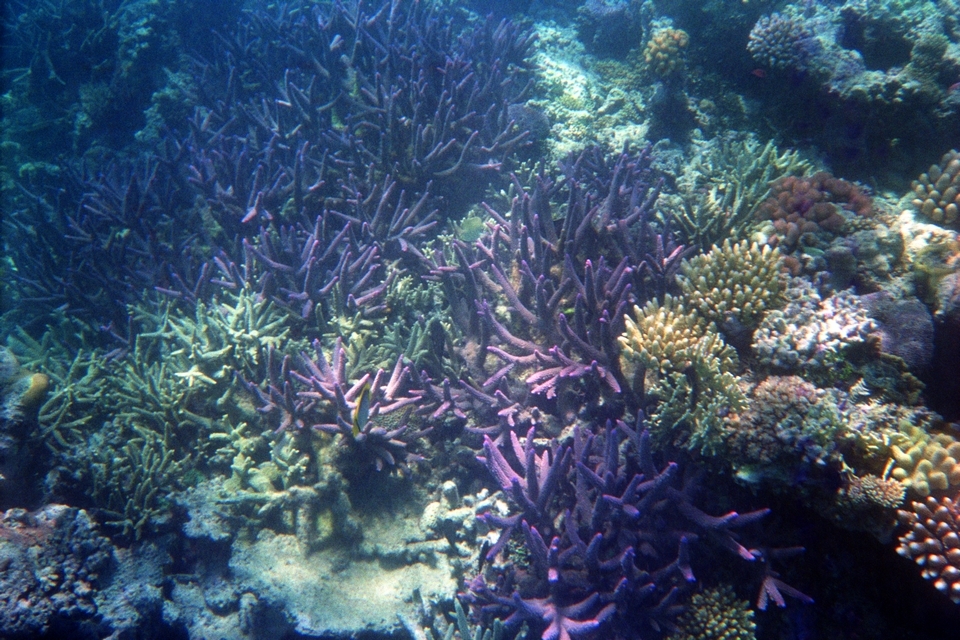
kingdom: Animalia
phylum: Cnidaria
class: Anthozoa
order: Scleractinia
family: Acroporidae
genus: Acropora
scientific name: Acropora muricata
